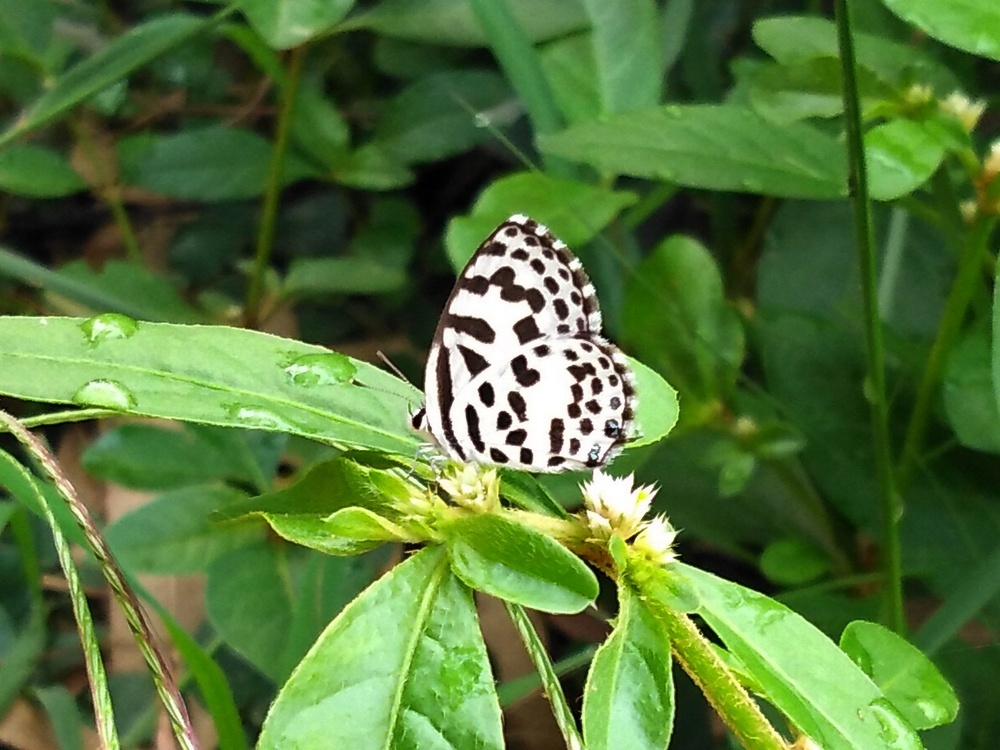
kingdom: Animalia
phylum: Arthropoda
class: Insecta
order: Lepidoptera
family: Lycaenidae
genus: Castalius
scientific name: Castalius rosimon
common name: Common pierrot
